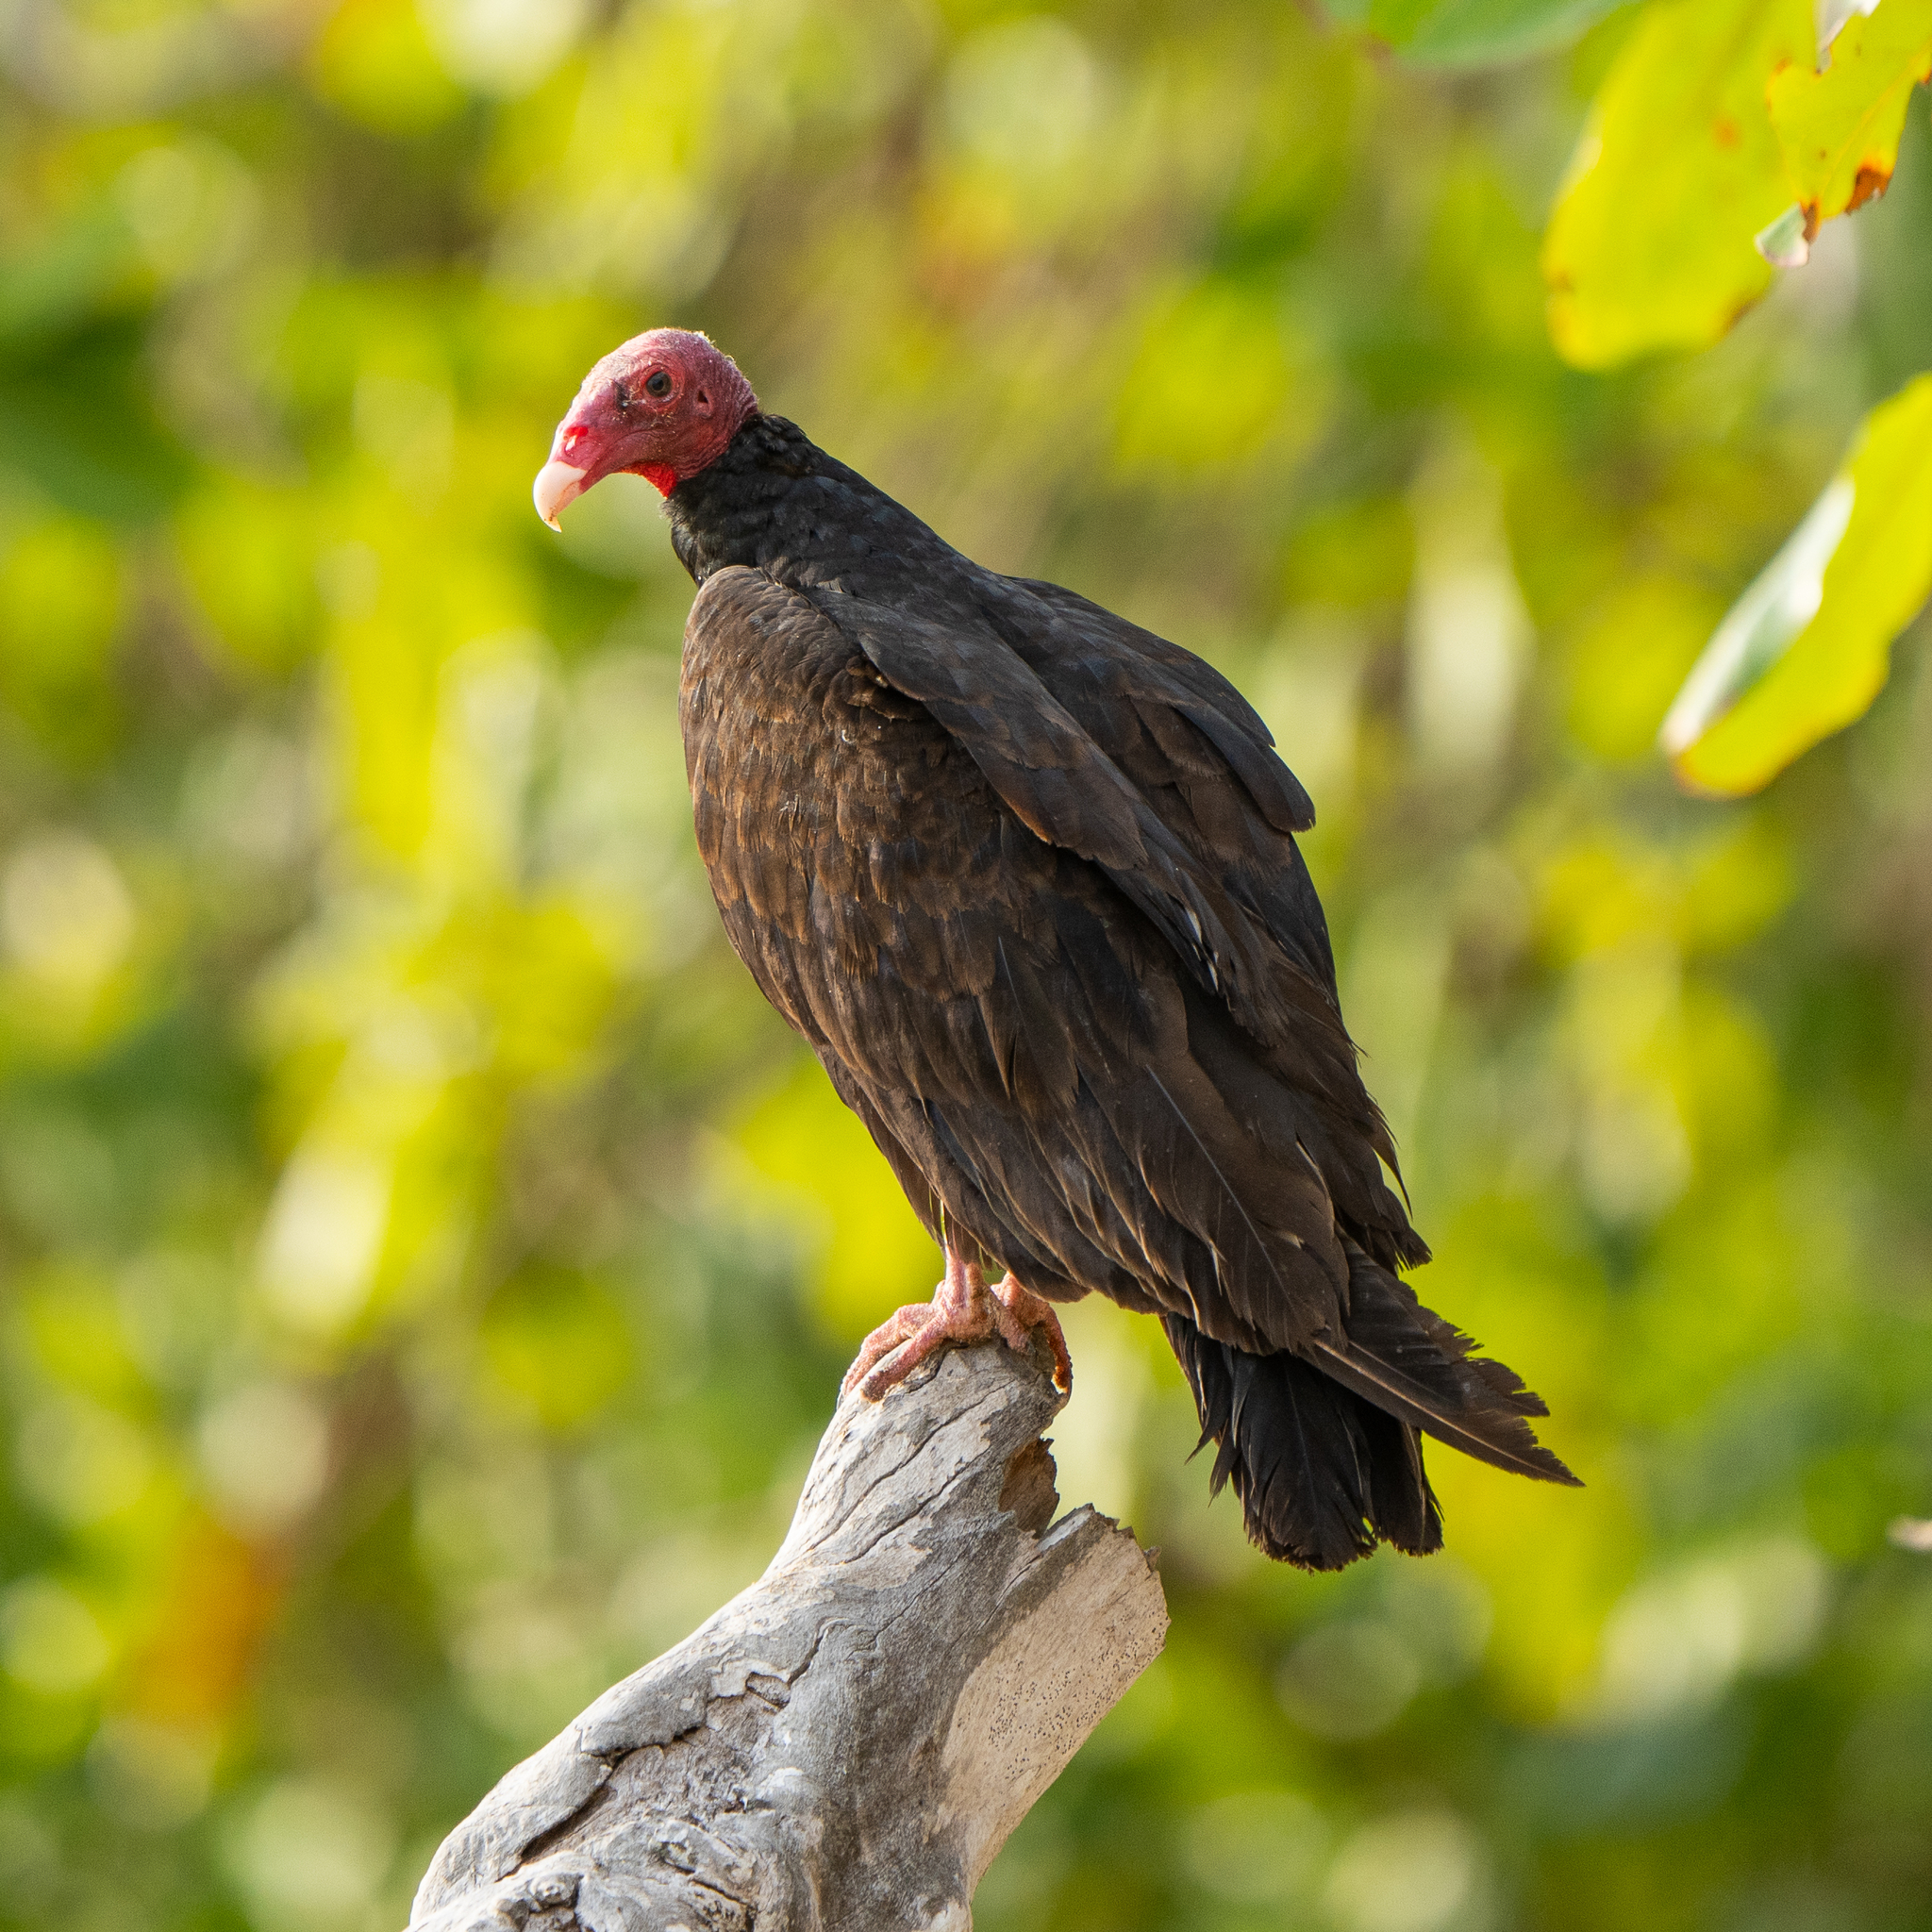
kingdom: Animalia
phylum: Chordata
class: Aves
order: Accipitriformes
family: Cathartidae
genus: Cathartes
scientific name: Cathartes aura
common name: Turkey vulture
